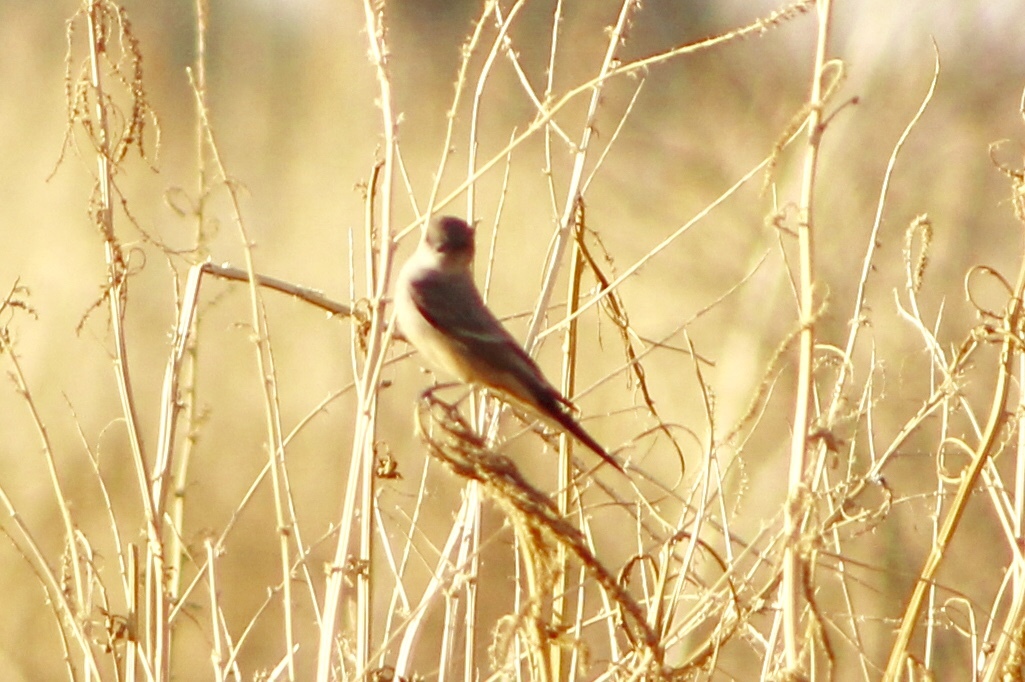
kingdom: Animalia
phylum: Chordata
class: Aves
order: Passeriformes
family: Tyrannidae
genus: Sayornis
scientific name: Sayornis saya
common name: Say's phoebe
